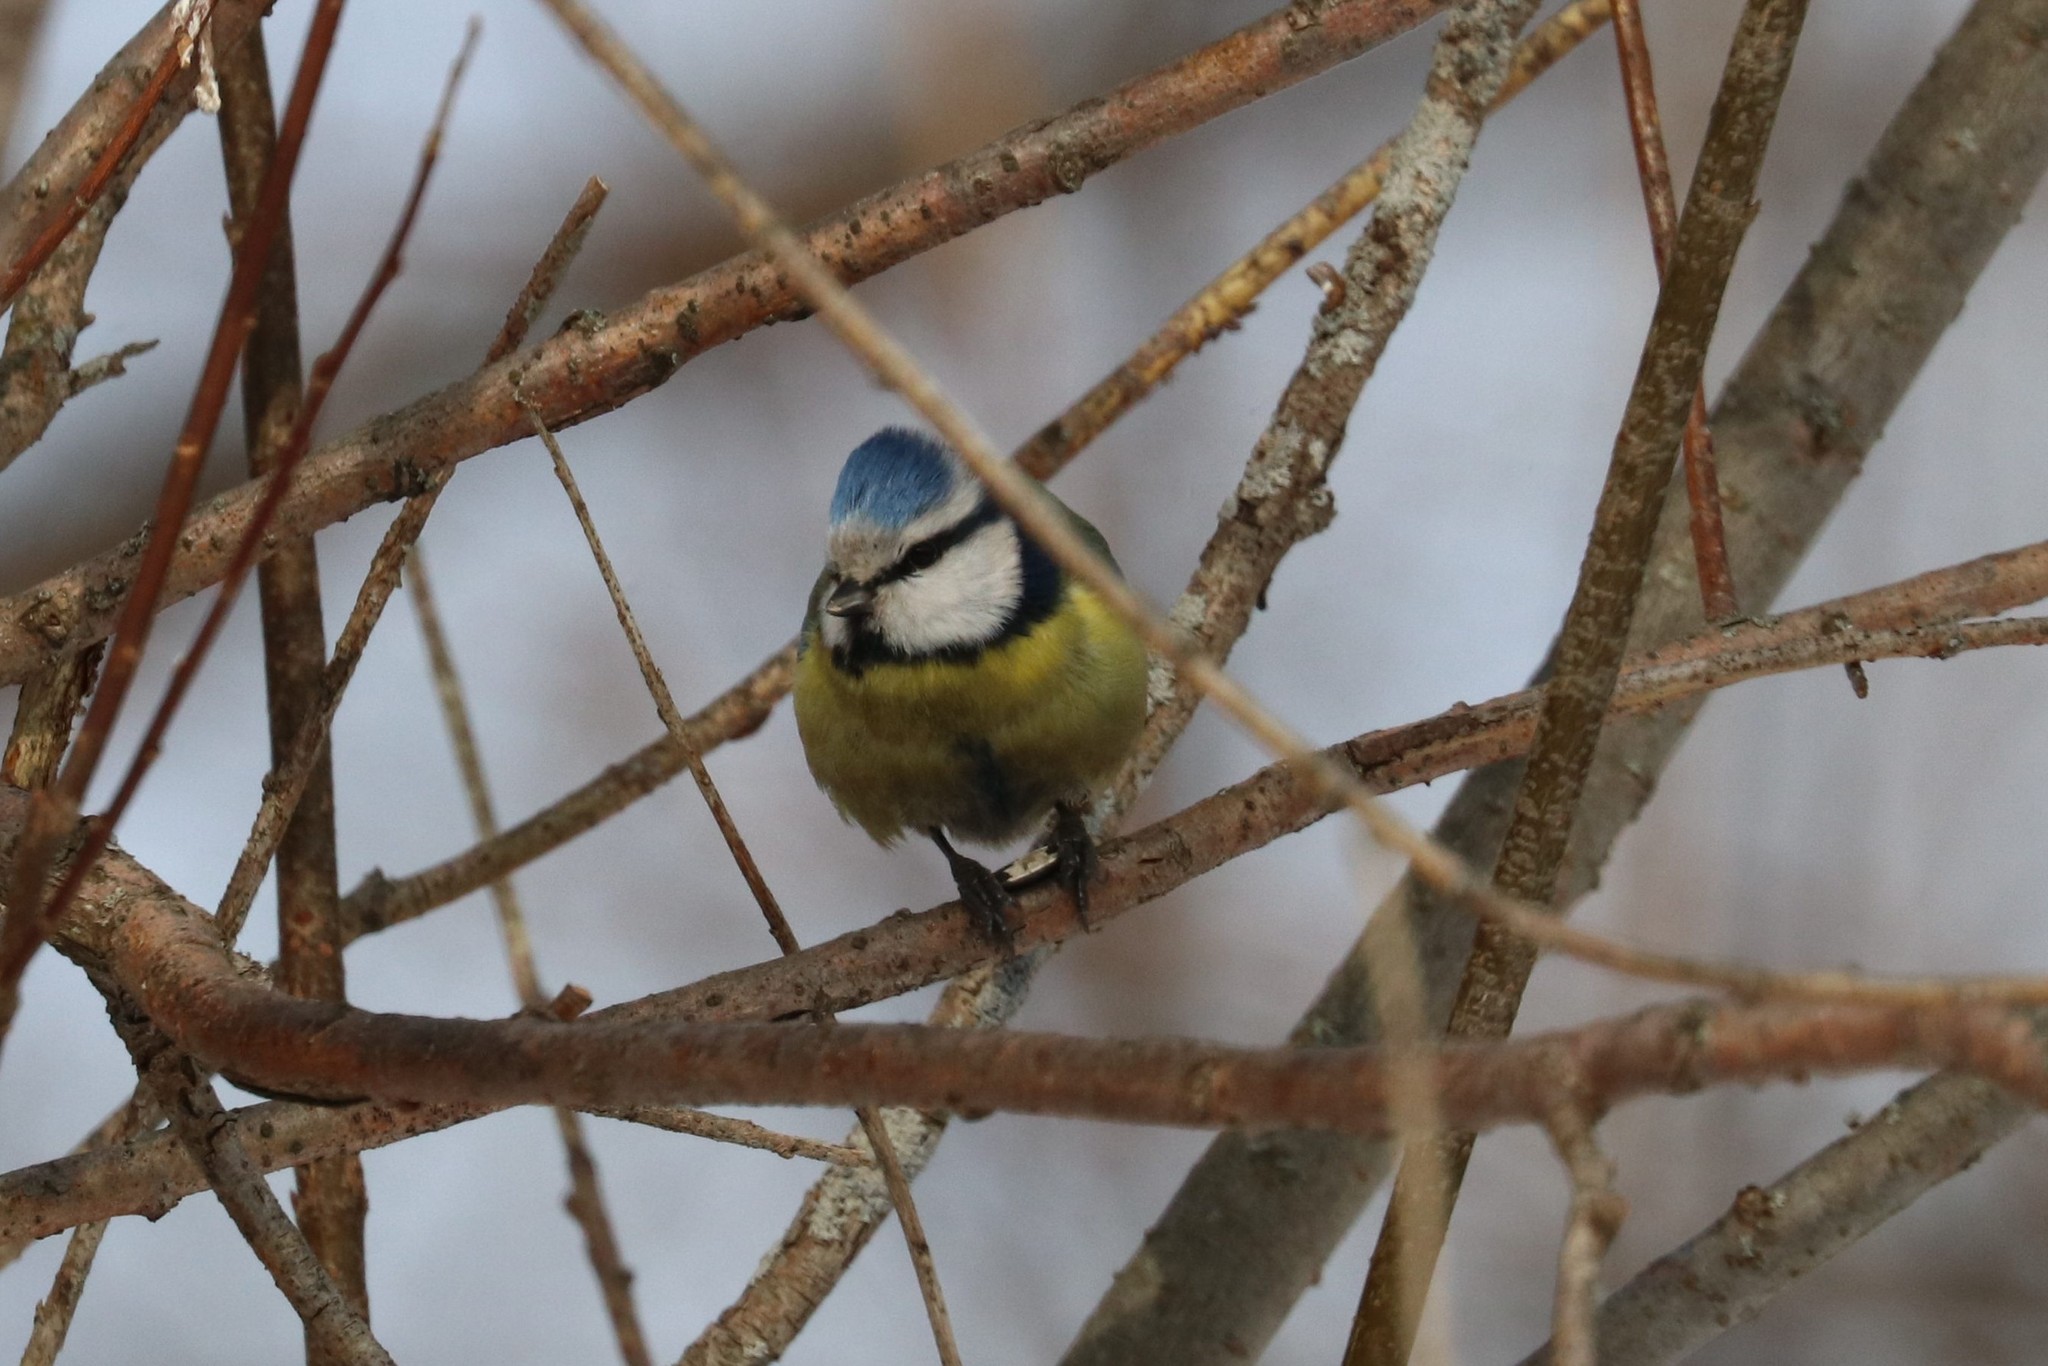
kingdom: Animalia
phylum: Chordata
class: Aves
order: Passeriformes
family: Paridae
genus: Cyanistes
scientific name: Cyanistes caeruleus
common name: Eurasian blue tit
